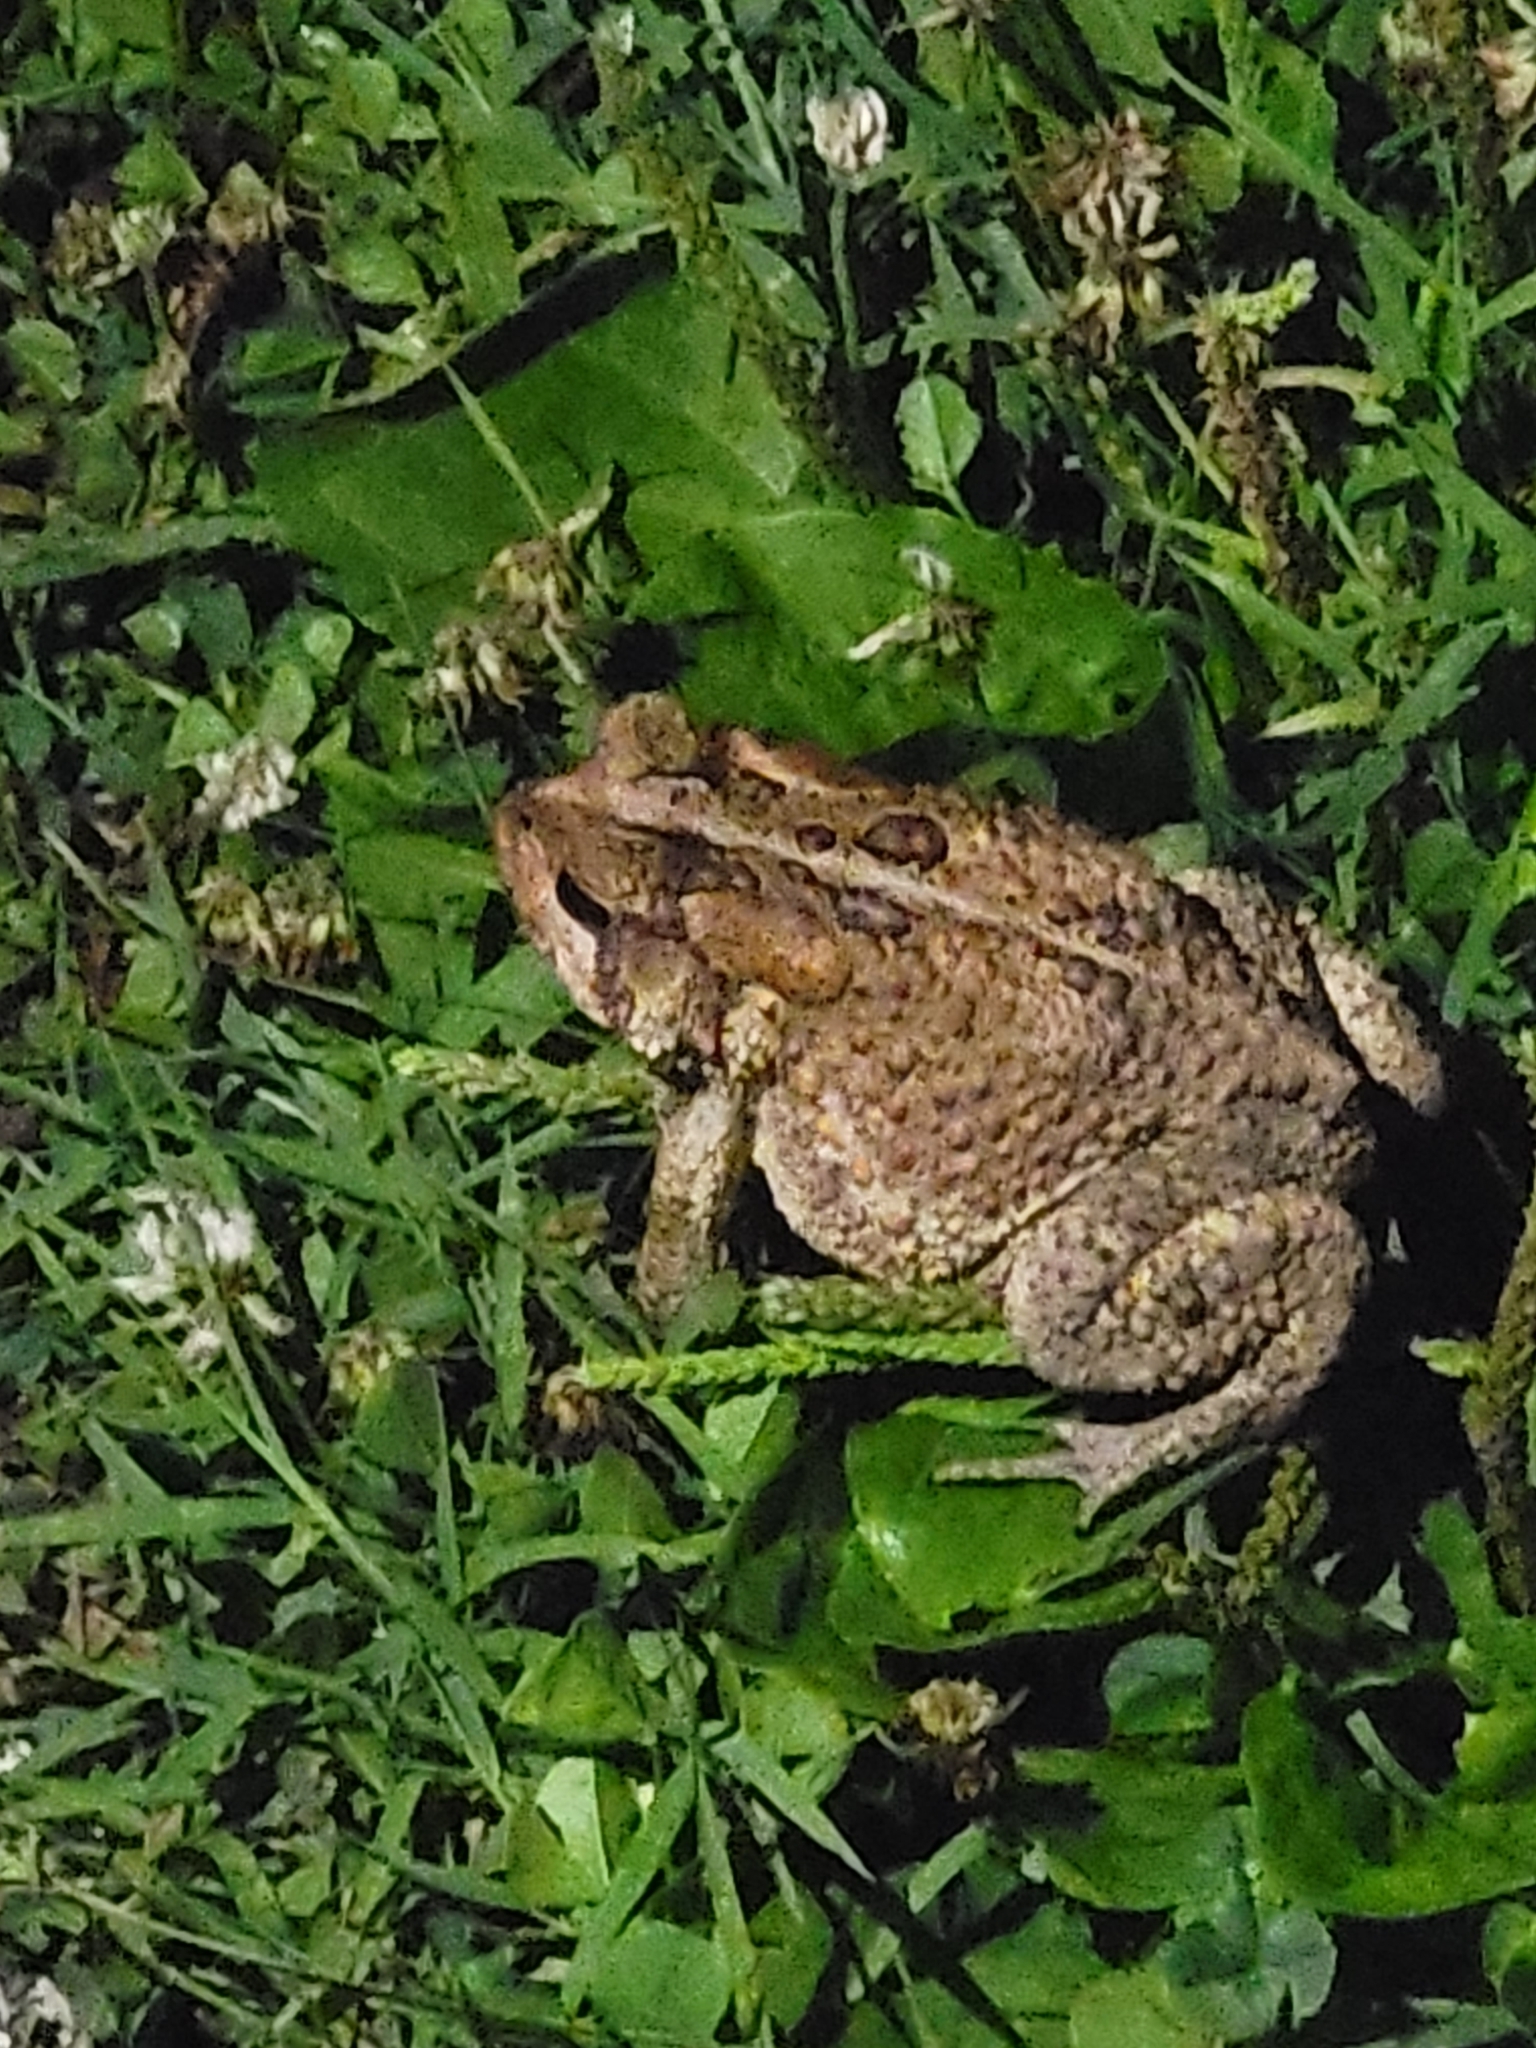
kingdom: Animalia
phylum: Chordata
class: Amphibia
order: Anura
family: Bufonidae
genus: Anaxyrus
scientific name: Anaxyrus americanus
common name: American toad
